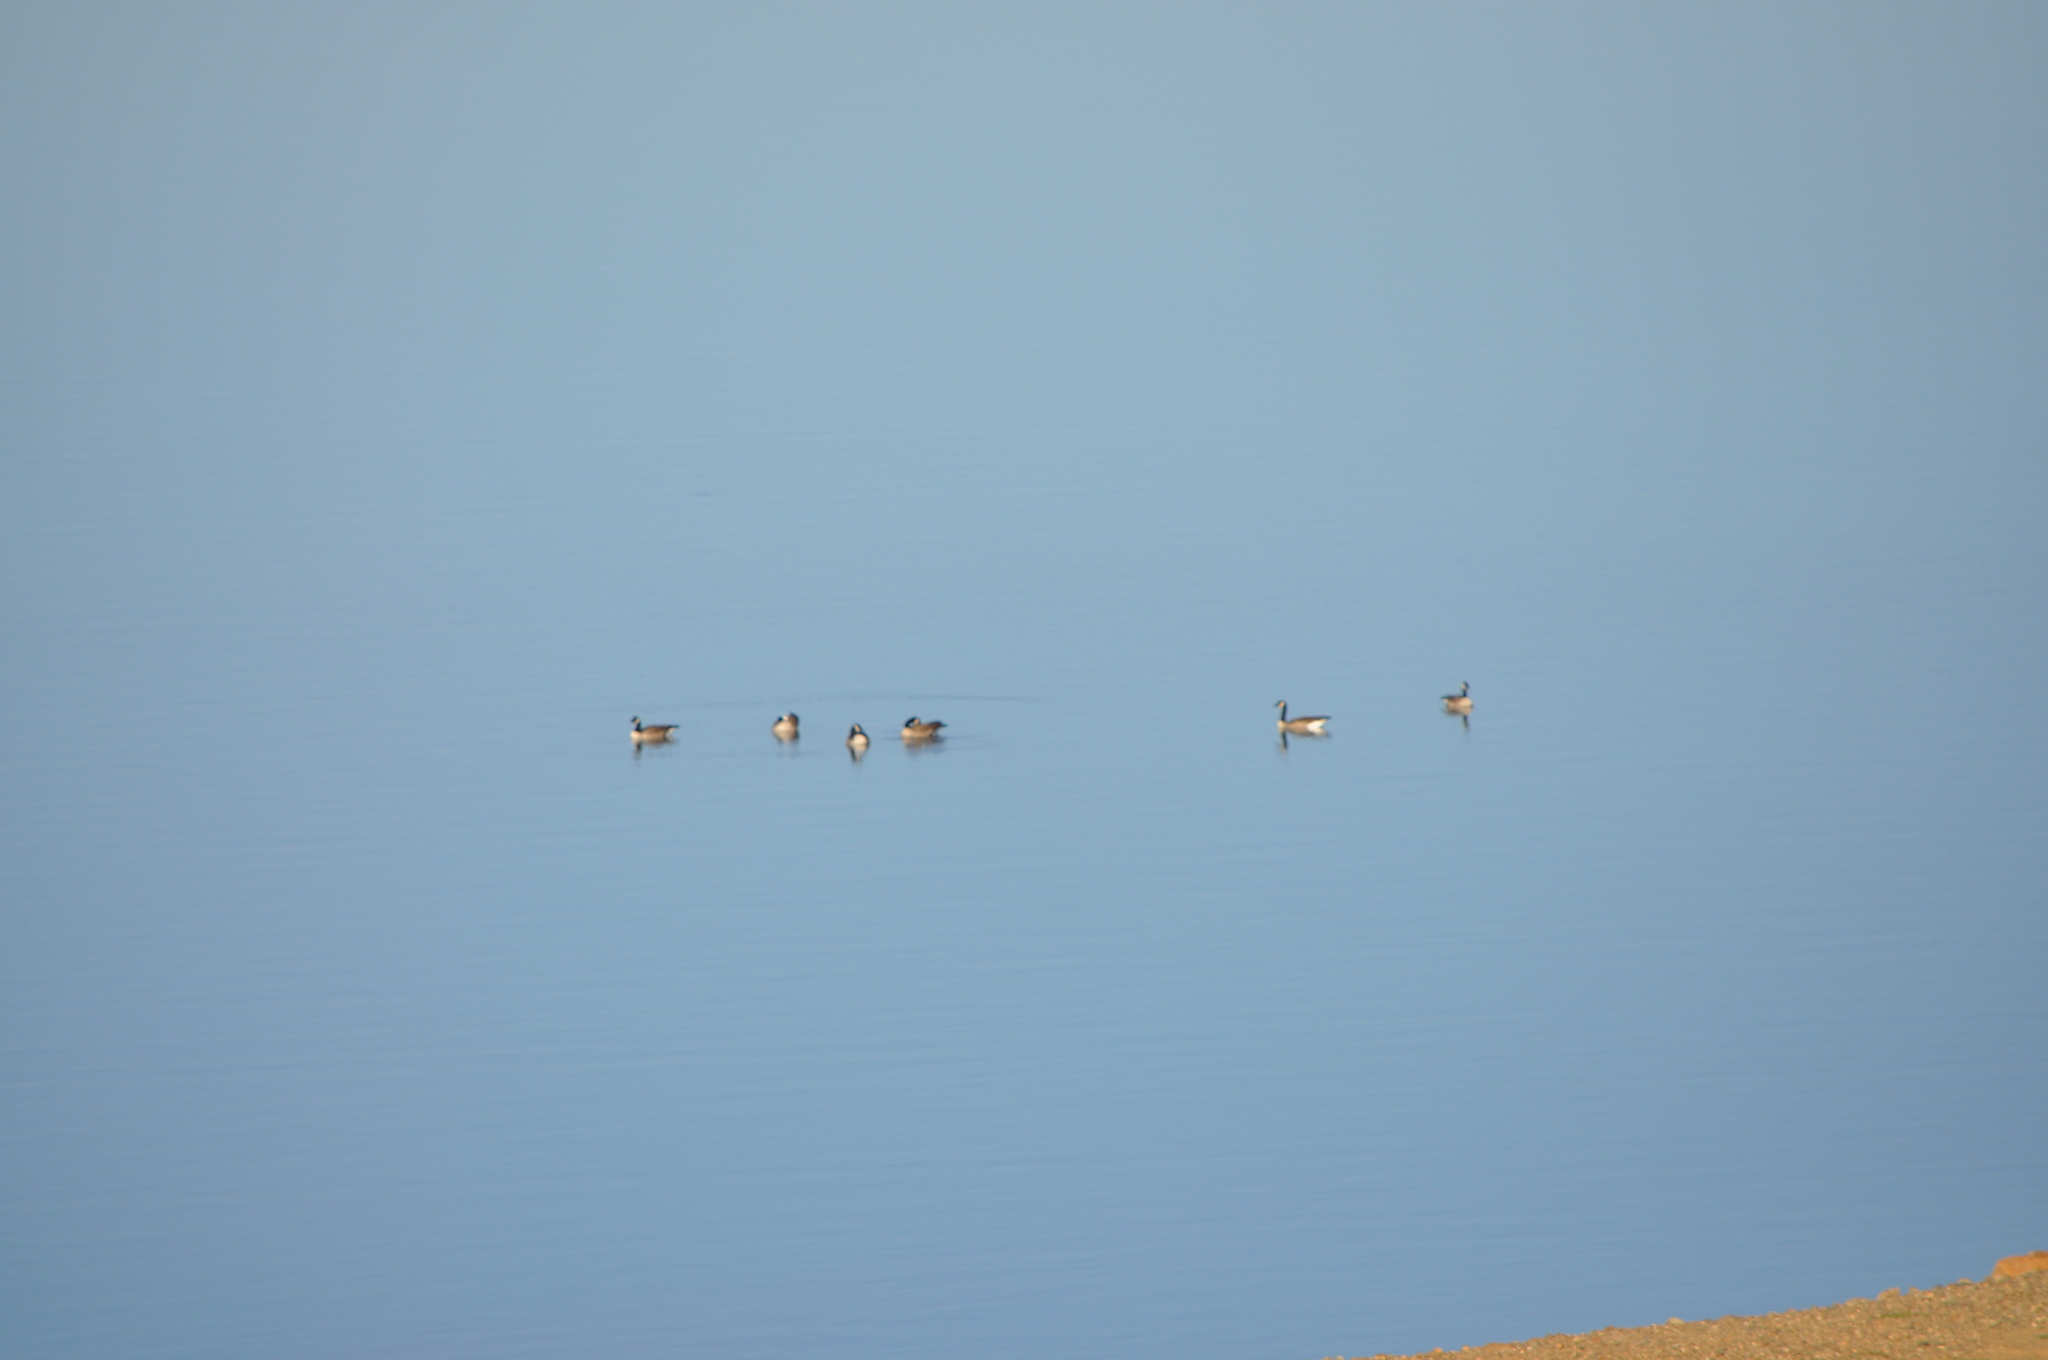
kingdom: Animalia
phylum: Chordata
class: Aves
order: Anseriformes
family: Anatidae
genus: Branta
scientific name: Branta canadensis
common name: Canada goose
